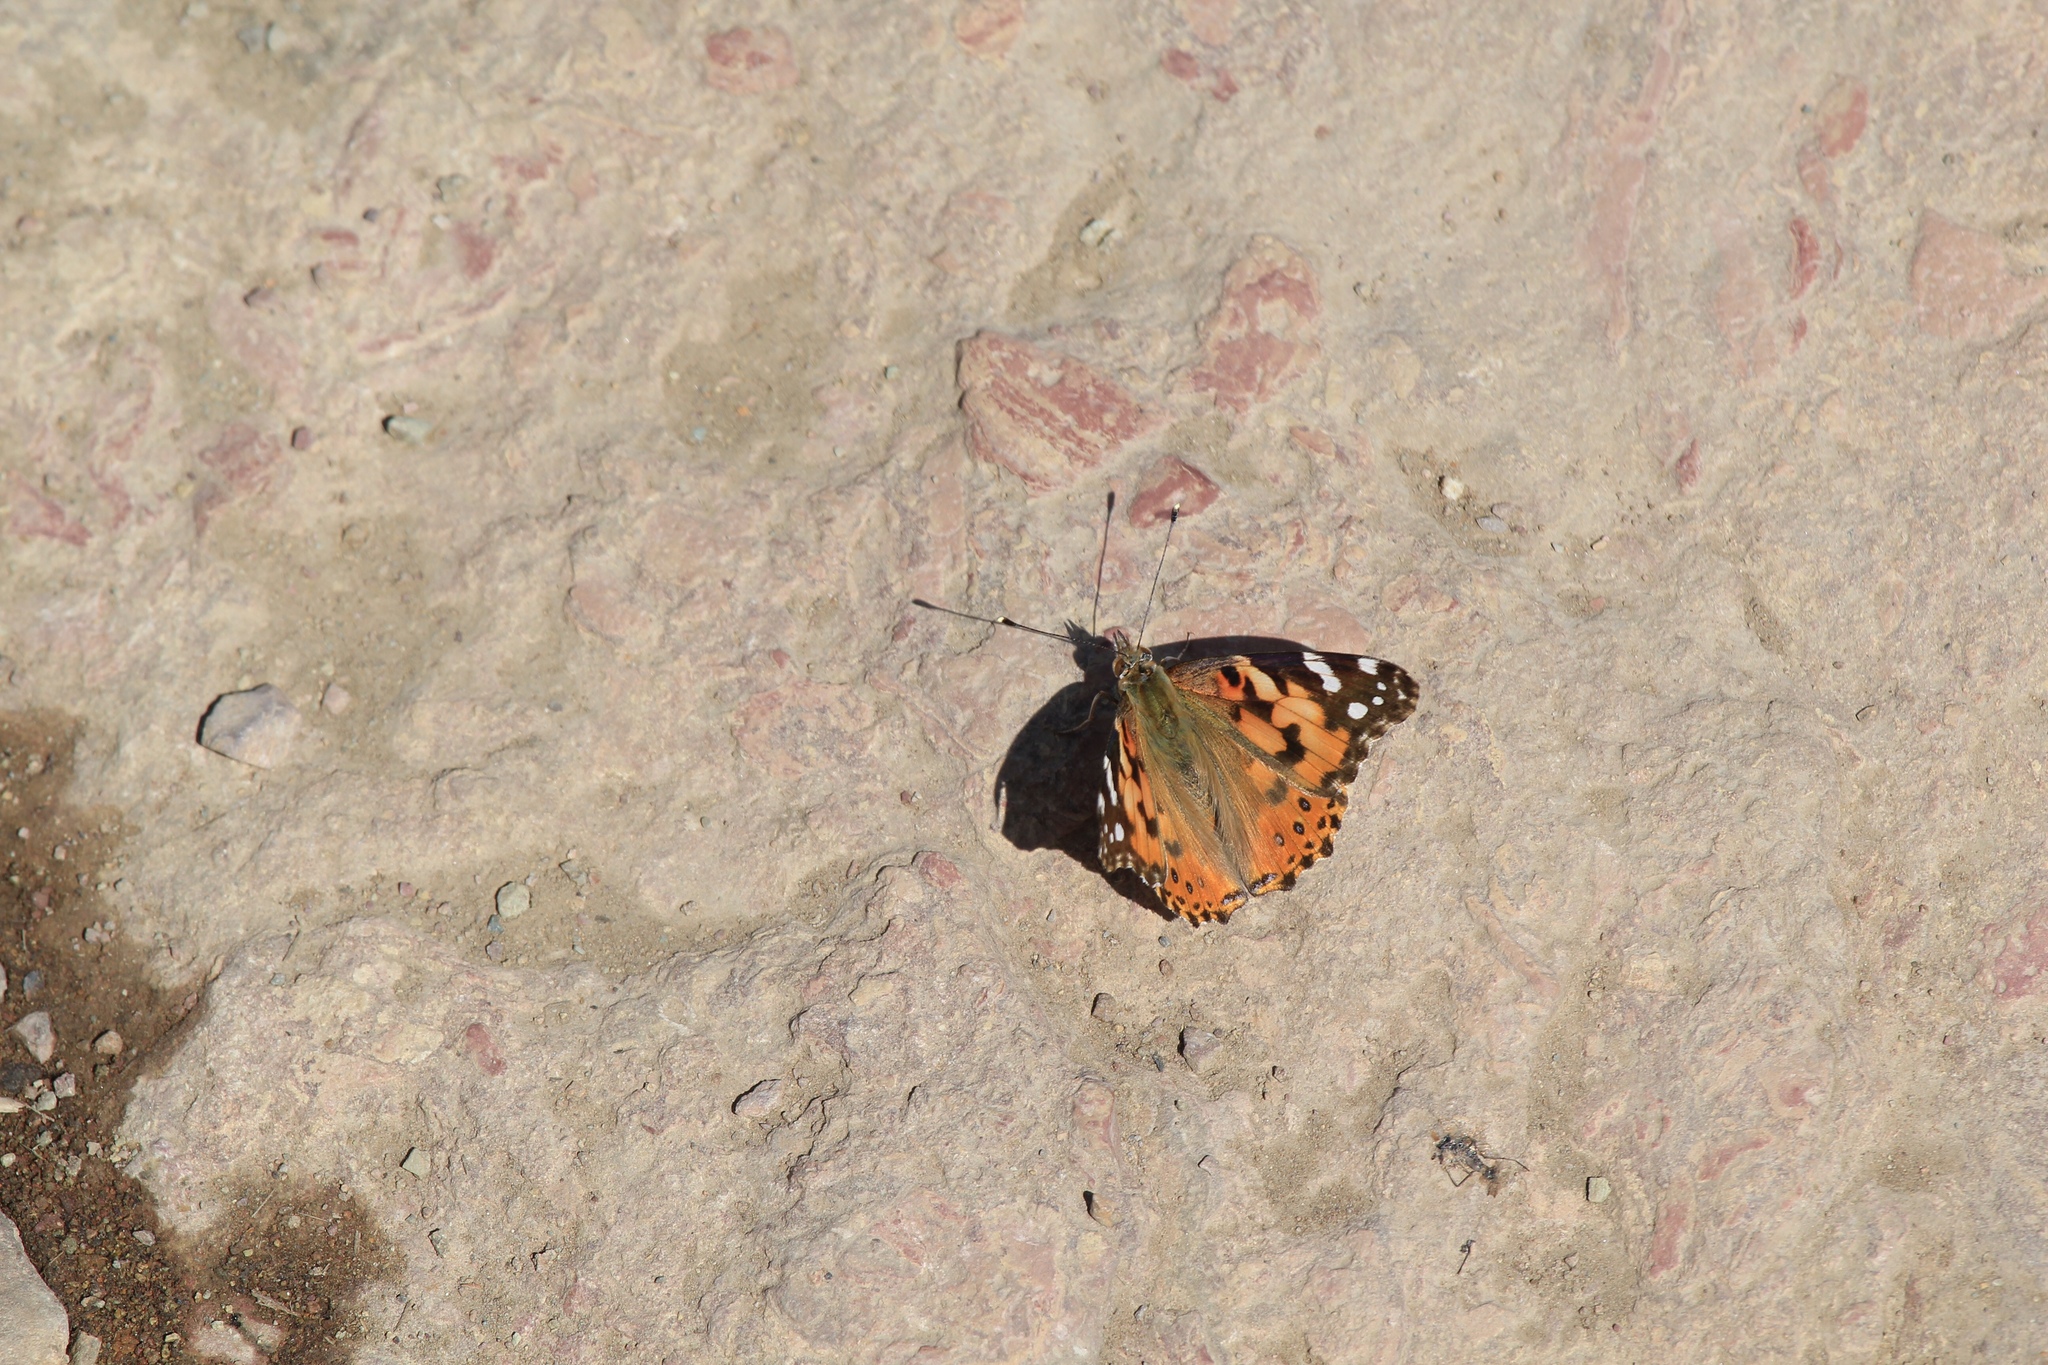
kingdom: Animalia
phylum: Arthropoda
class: Insecta
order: Lepidoptera
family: Nymphalidae
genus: Vanessa
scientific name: Vanessa cardui
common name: Painted lady
